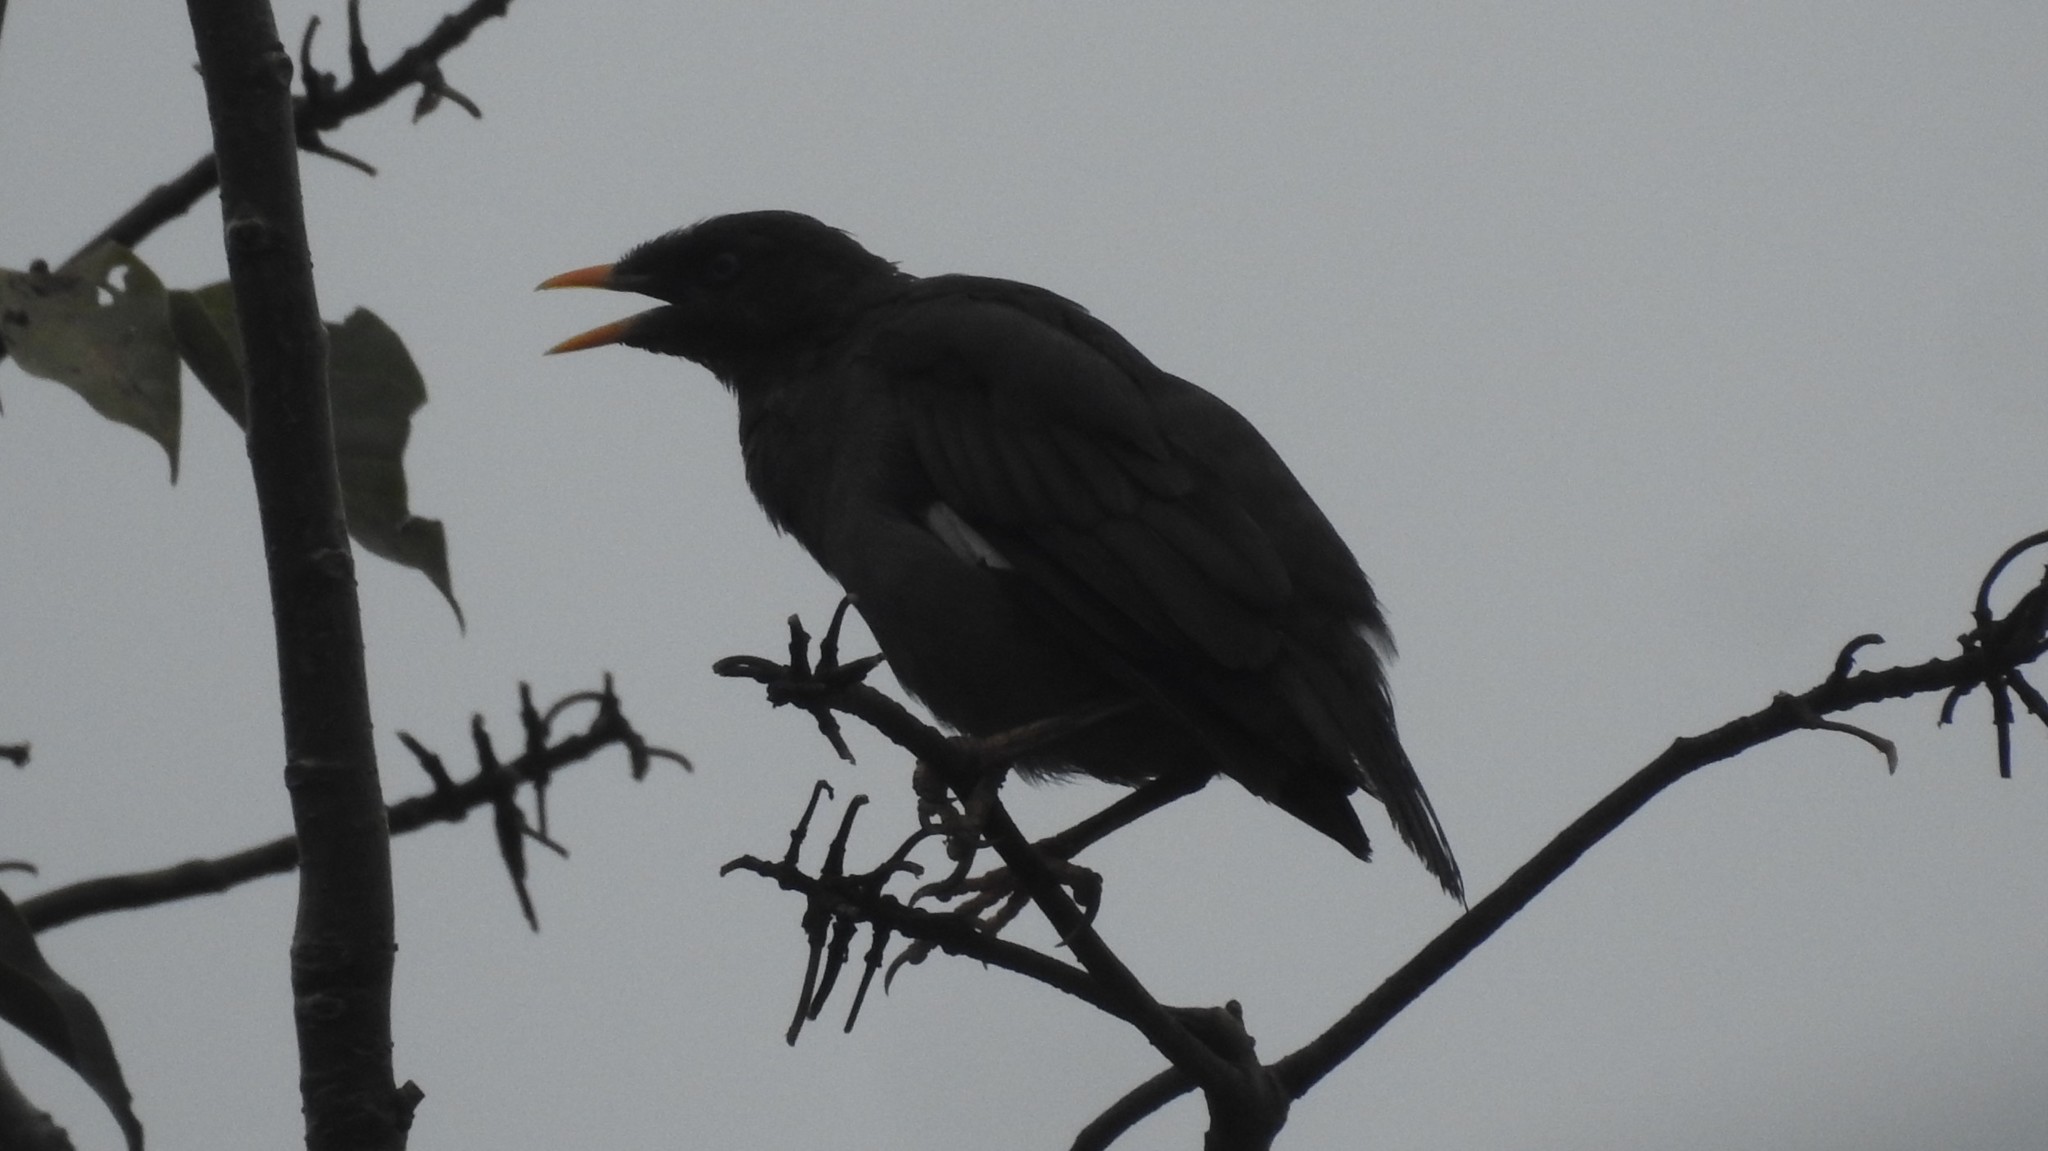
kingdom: Animalia
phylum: Chordata
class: Aves
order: Passeriformes
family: Sturnidae
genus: Acridotheres
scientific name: Acridotheres fuscus
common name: Jungle myna
